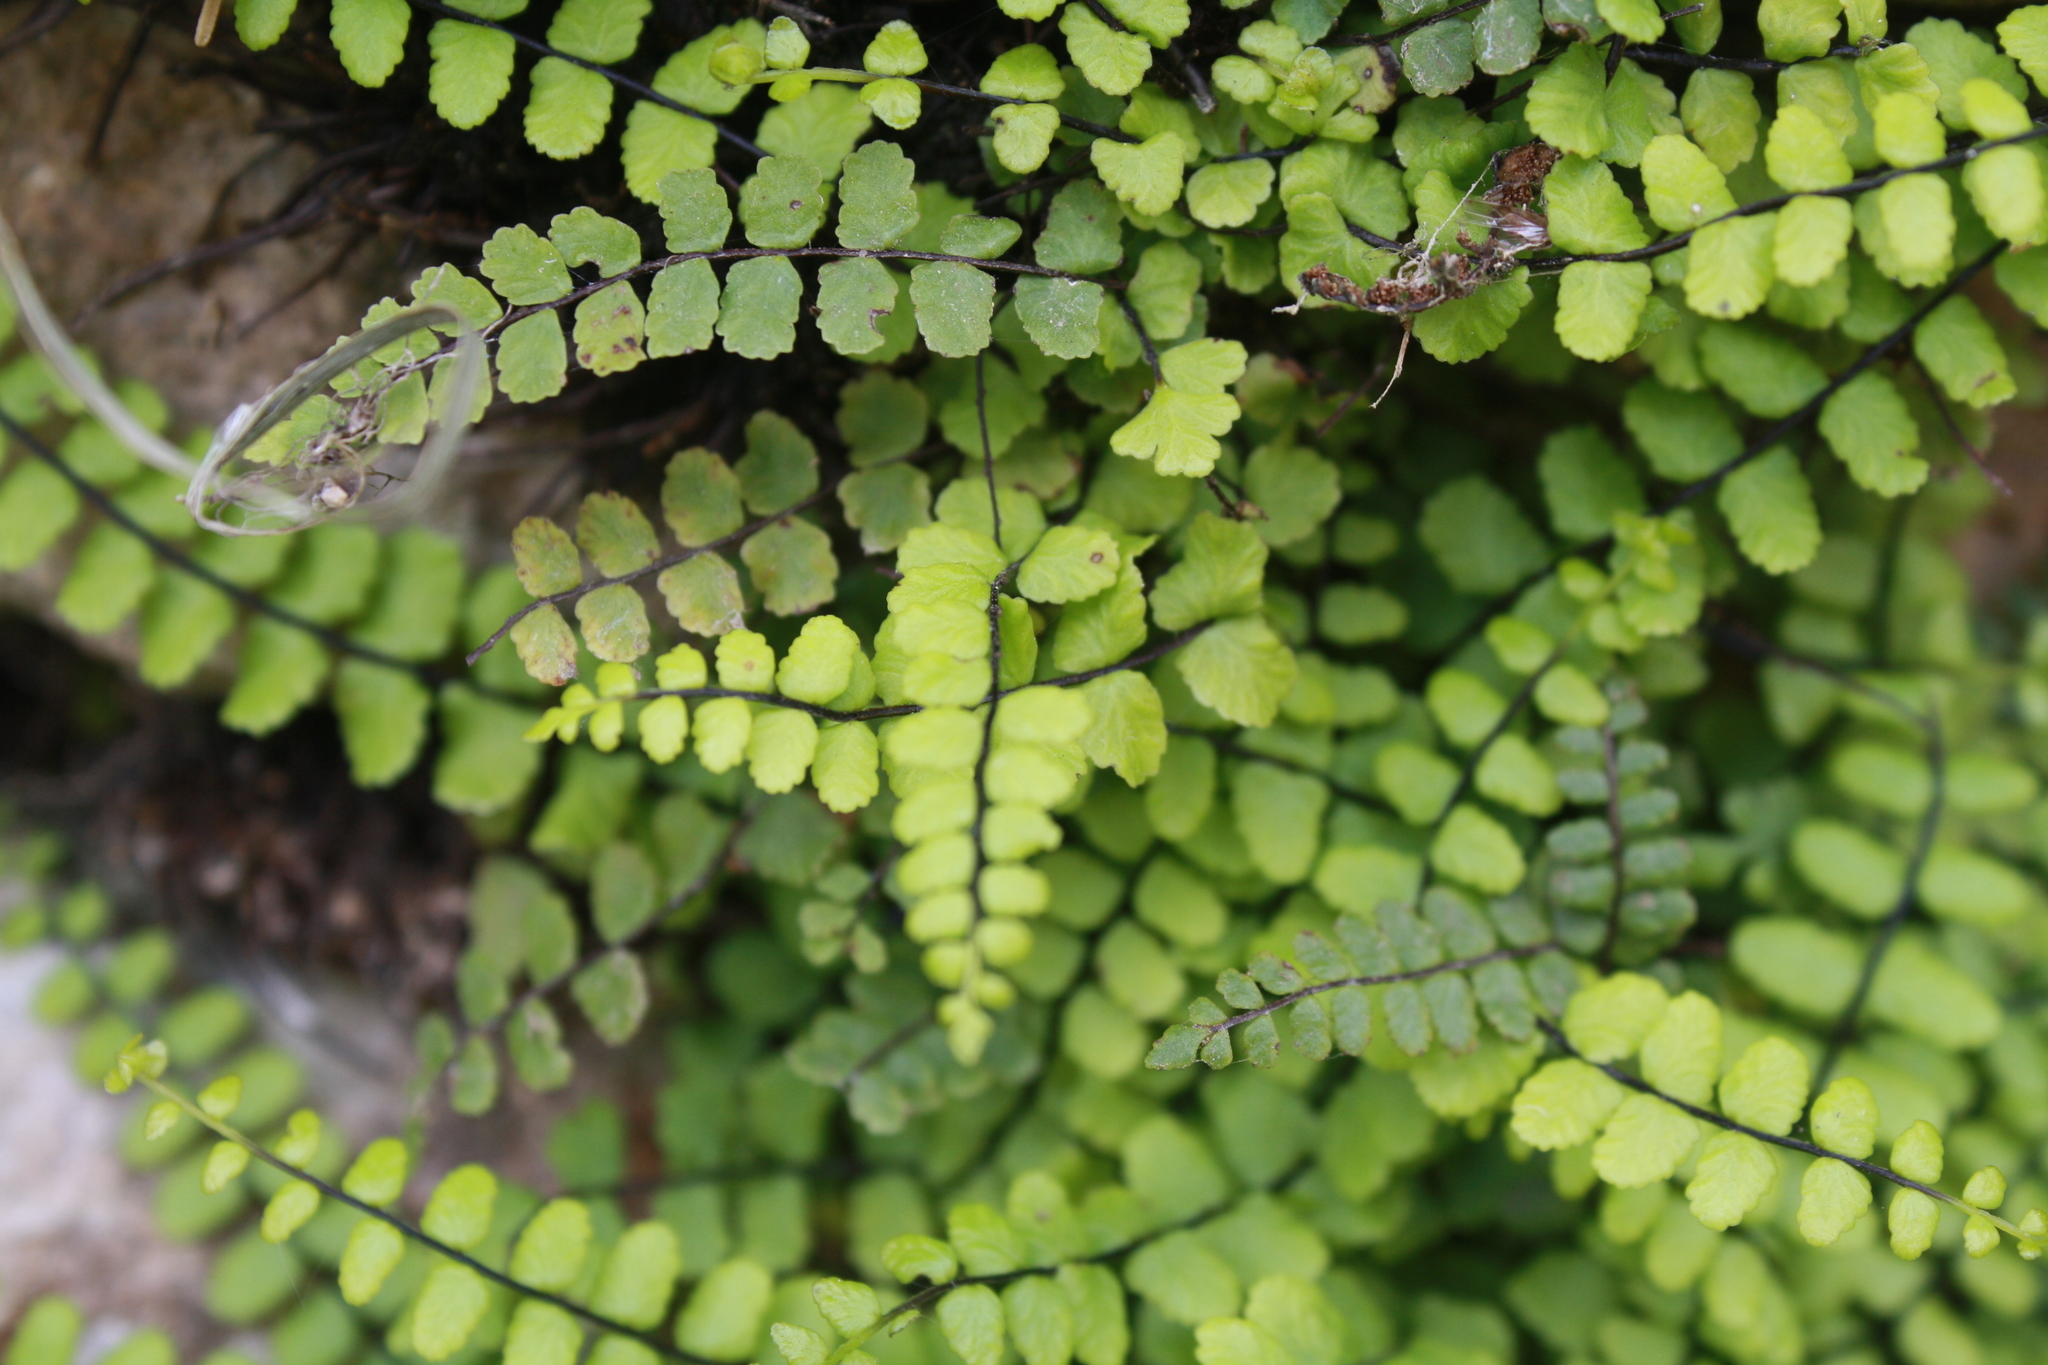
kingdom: Plantae
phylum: Tracheophyta
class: Polypodiopsida
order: Polypodiales
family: Aspleniaceae
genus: Asplenium
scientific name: Asplenium trichomanes
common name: Maidenhair spleenwort
